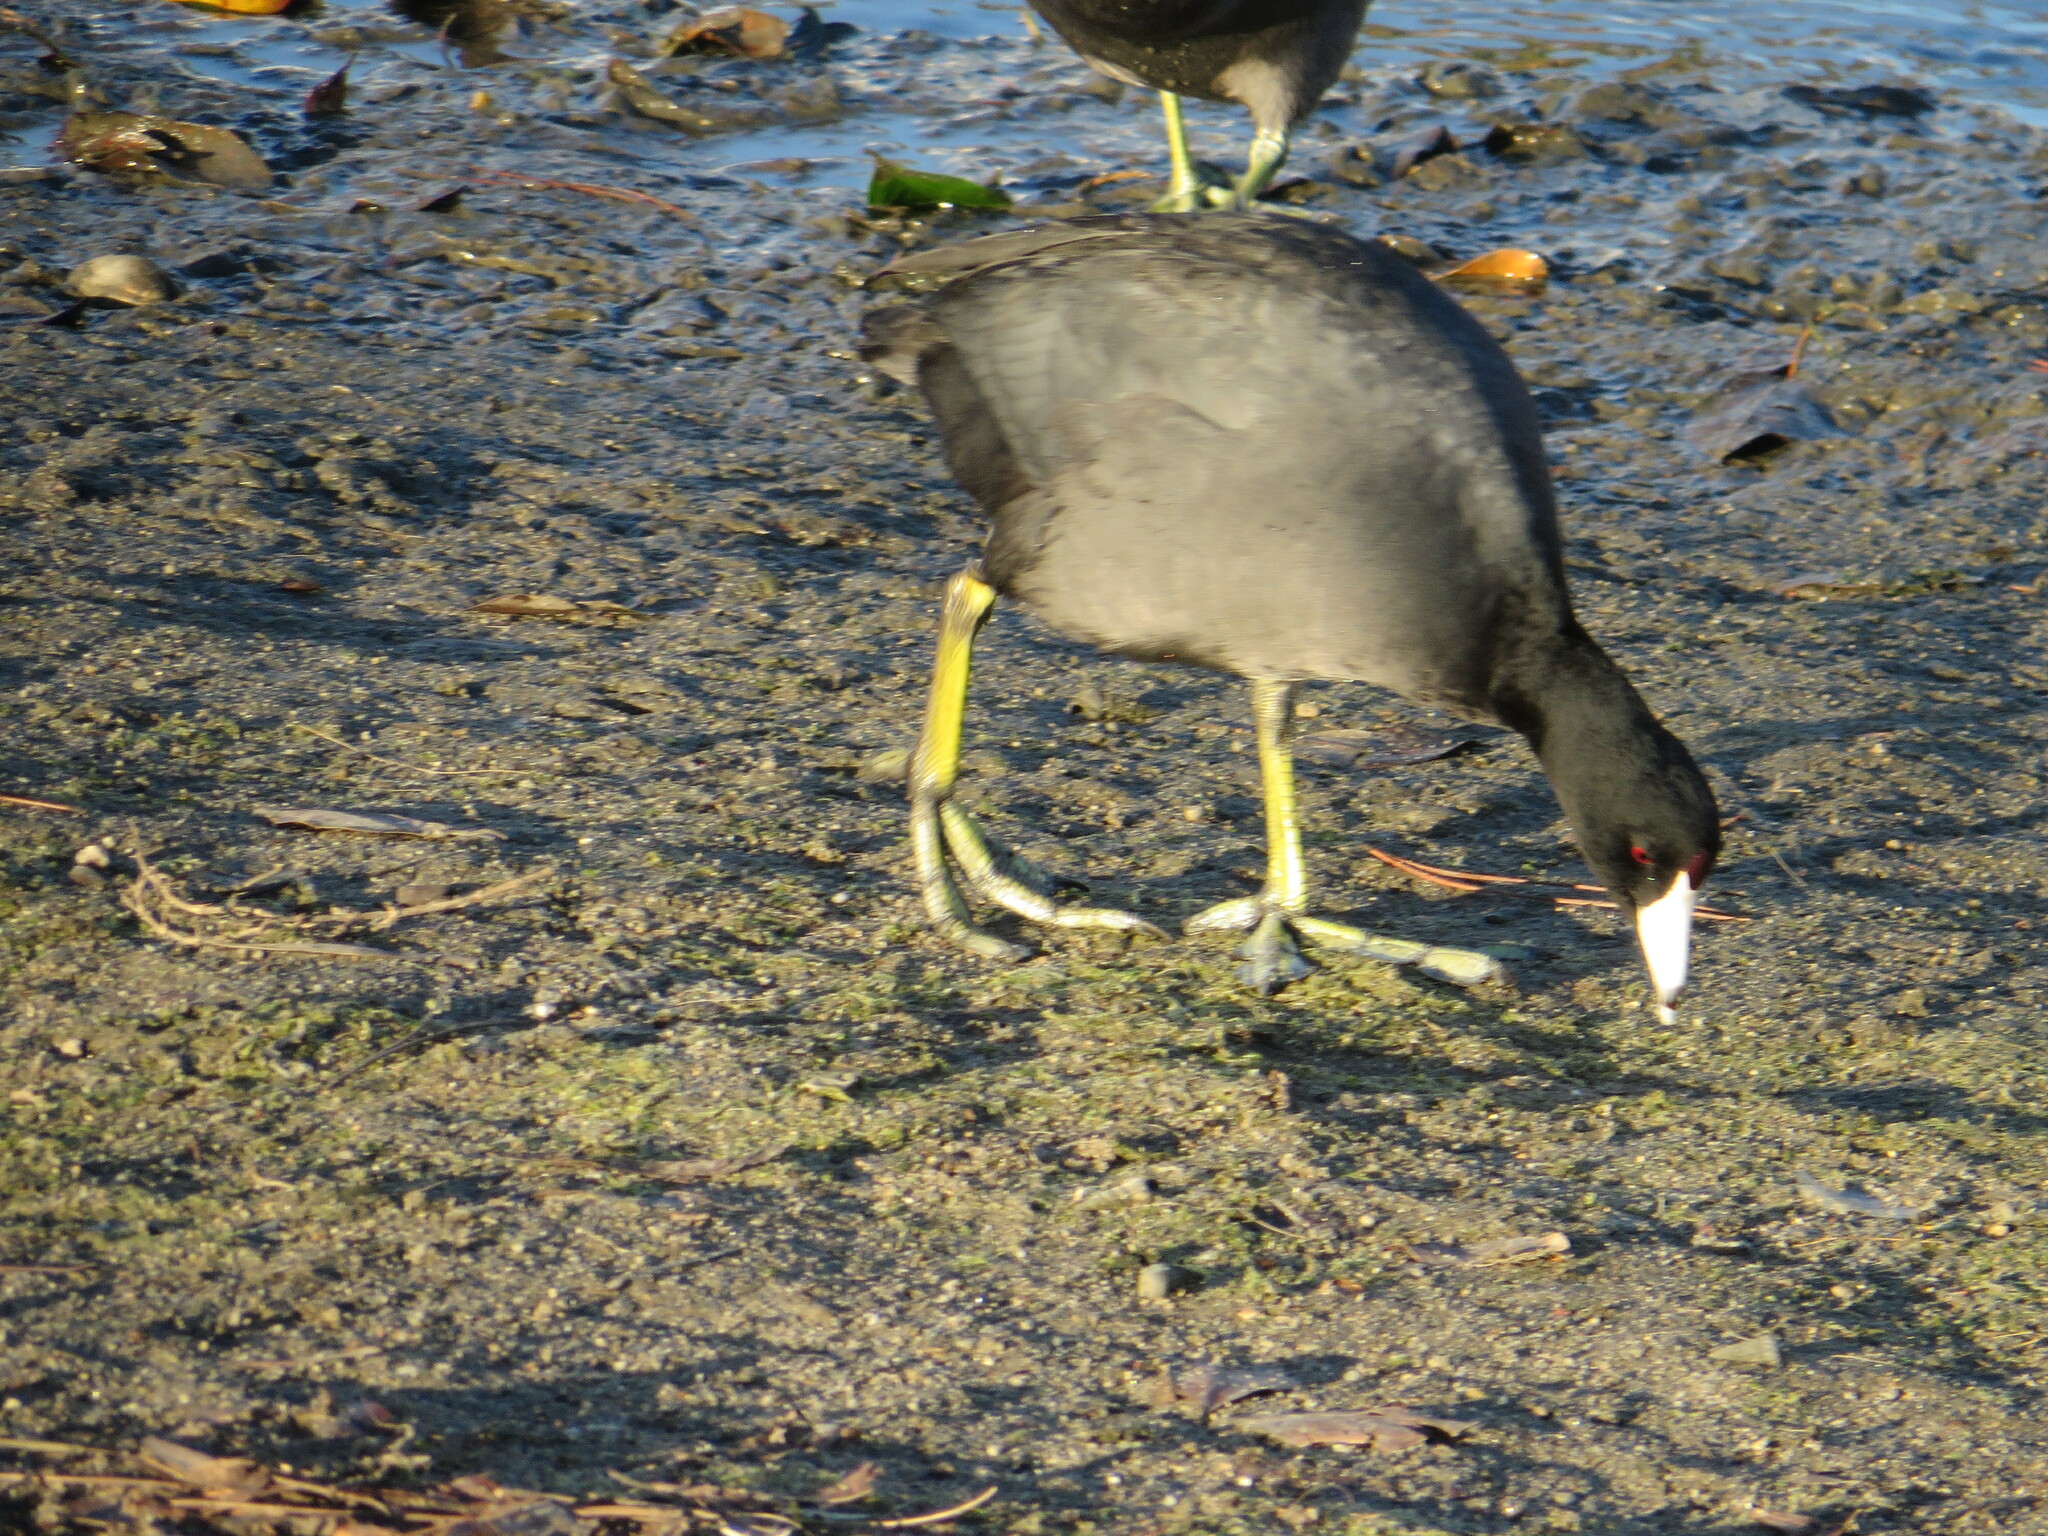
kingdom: Animalia
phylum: Chordata
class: Aves
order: Gruiformes
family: Rallidae
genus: Fulica
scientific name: Fulica americana
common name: American coot
